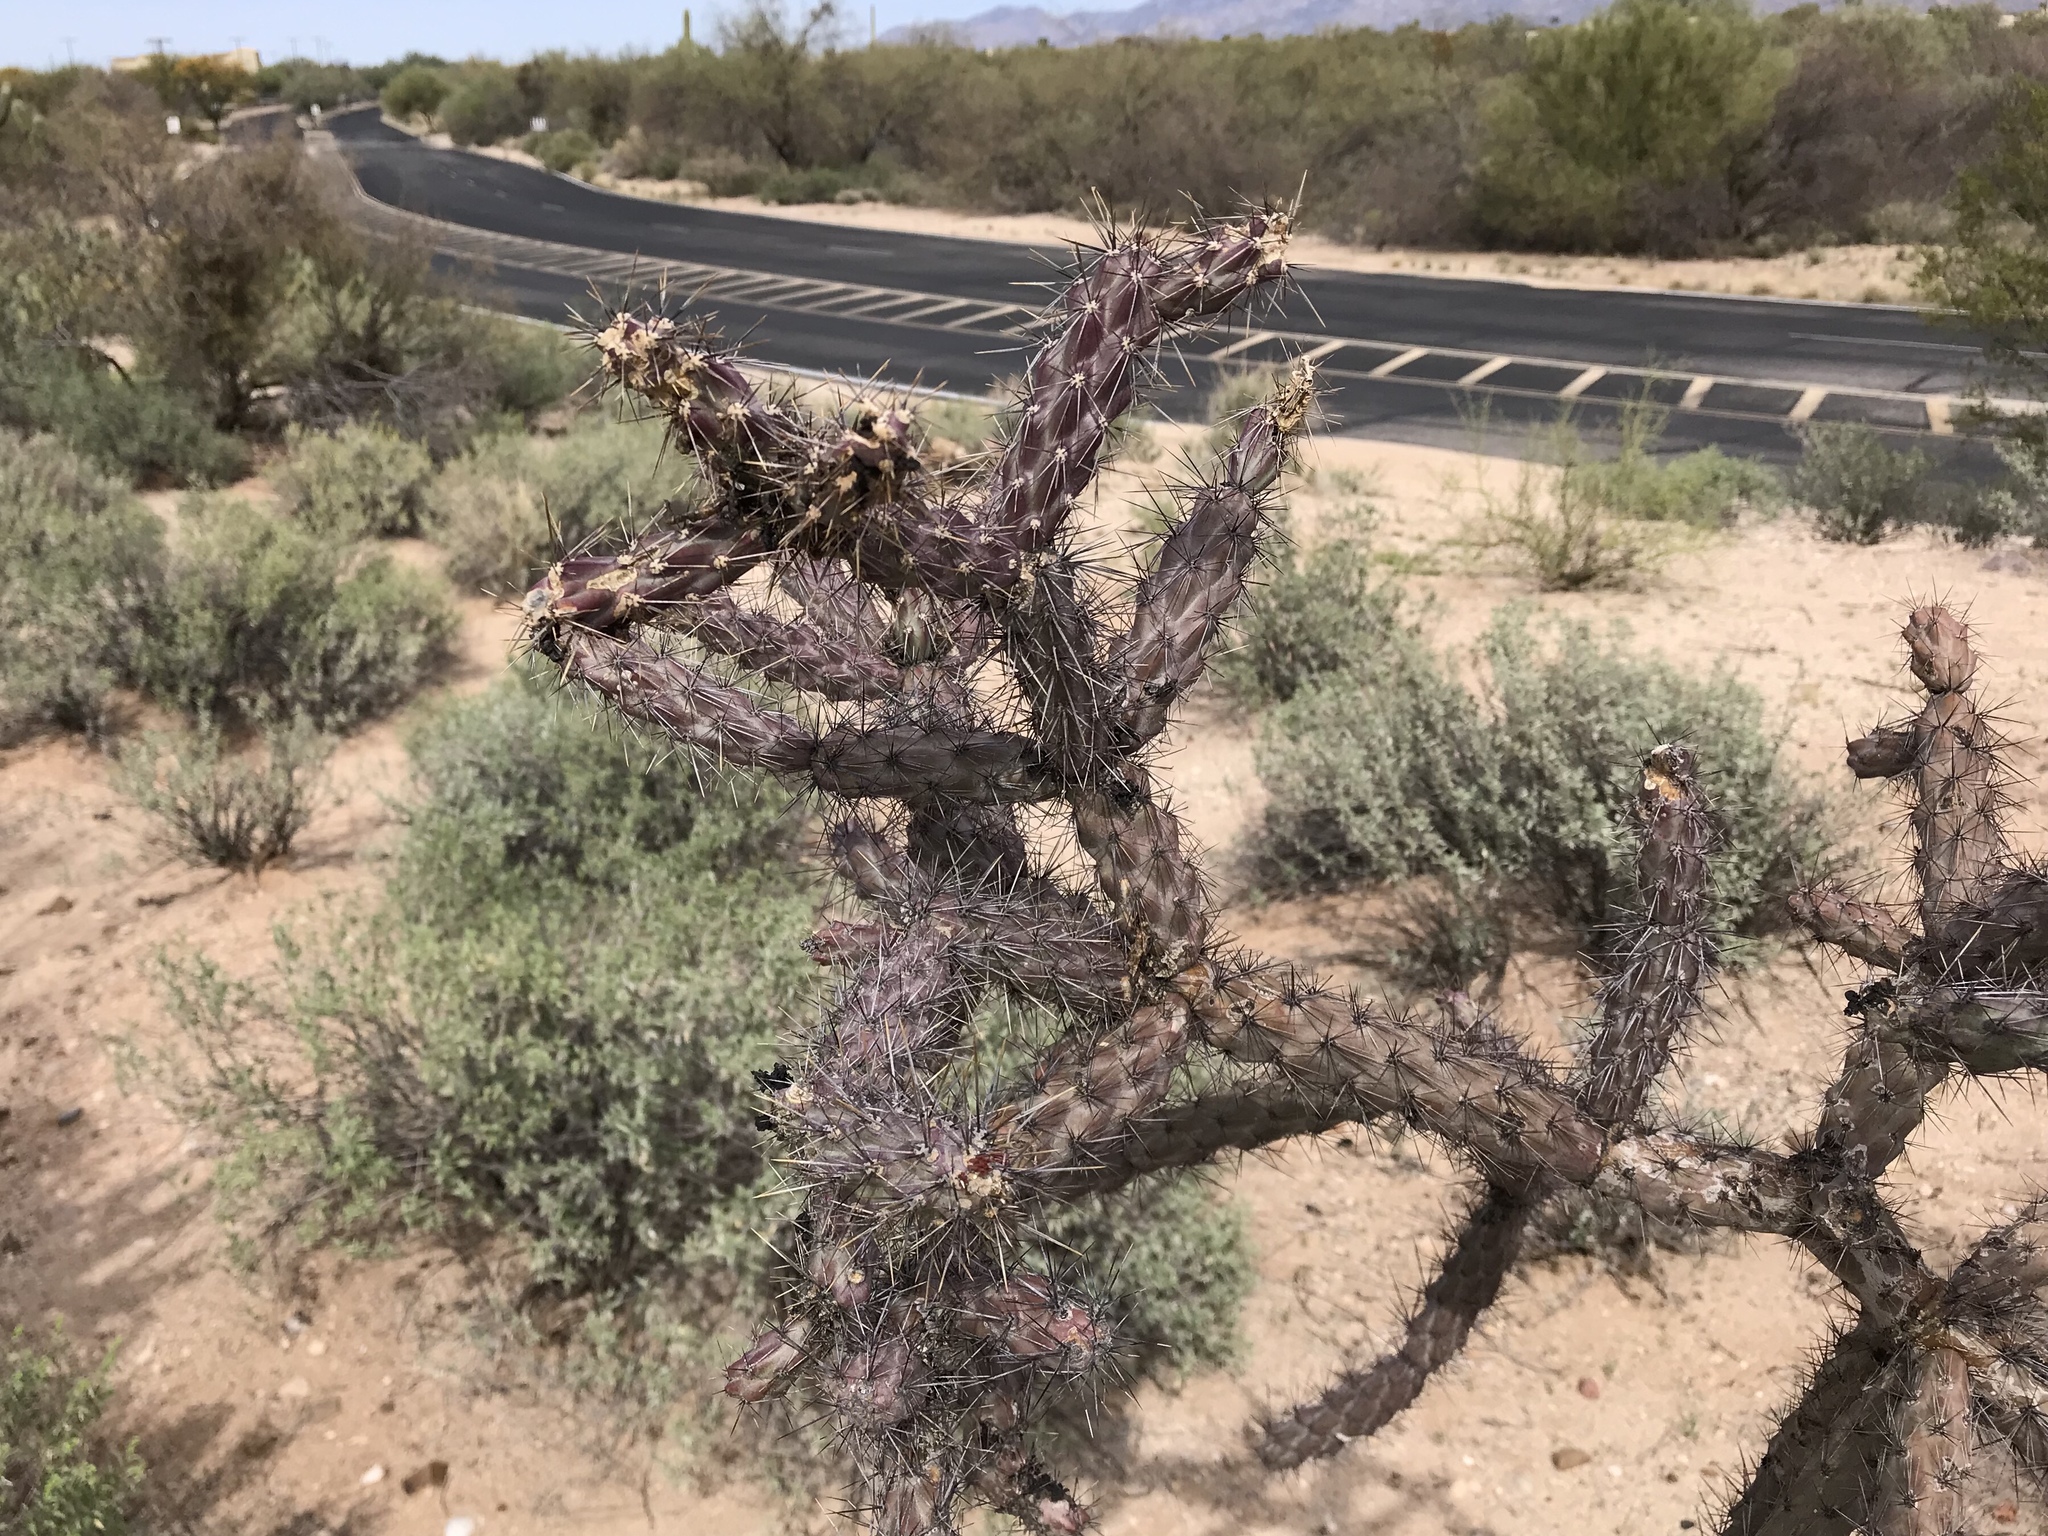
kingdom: Plantae
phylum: Tracheophyta
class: Magnoliopsida
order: Caryophyllales
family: Cactaceae
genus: Cylindropuntia
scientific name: Cylindropuntia thurberi
